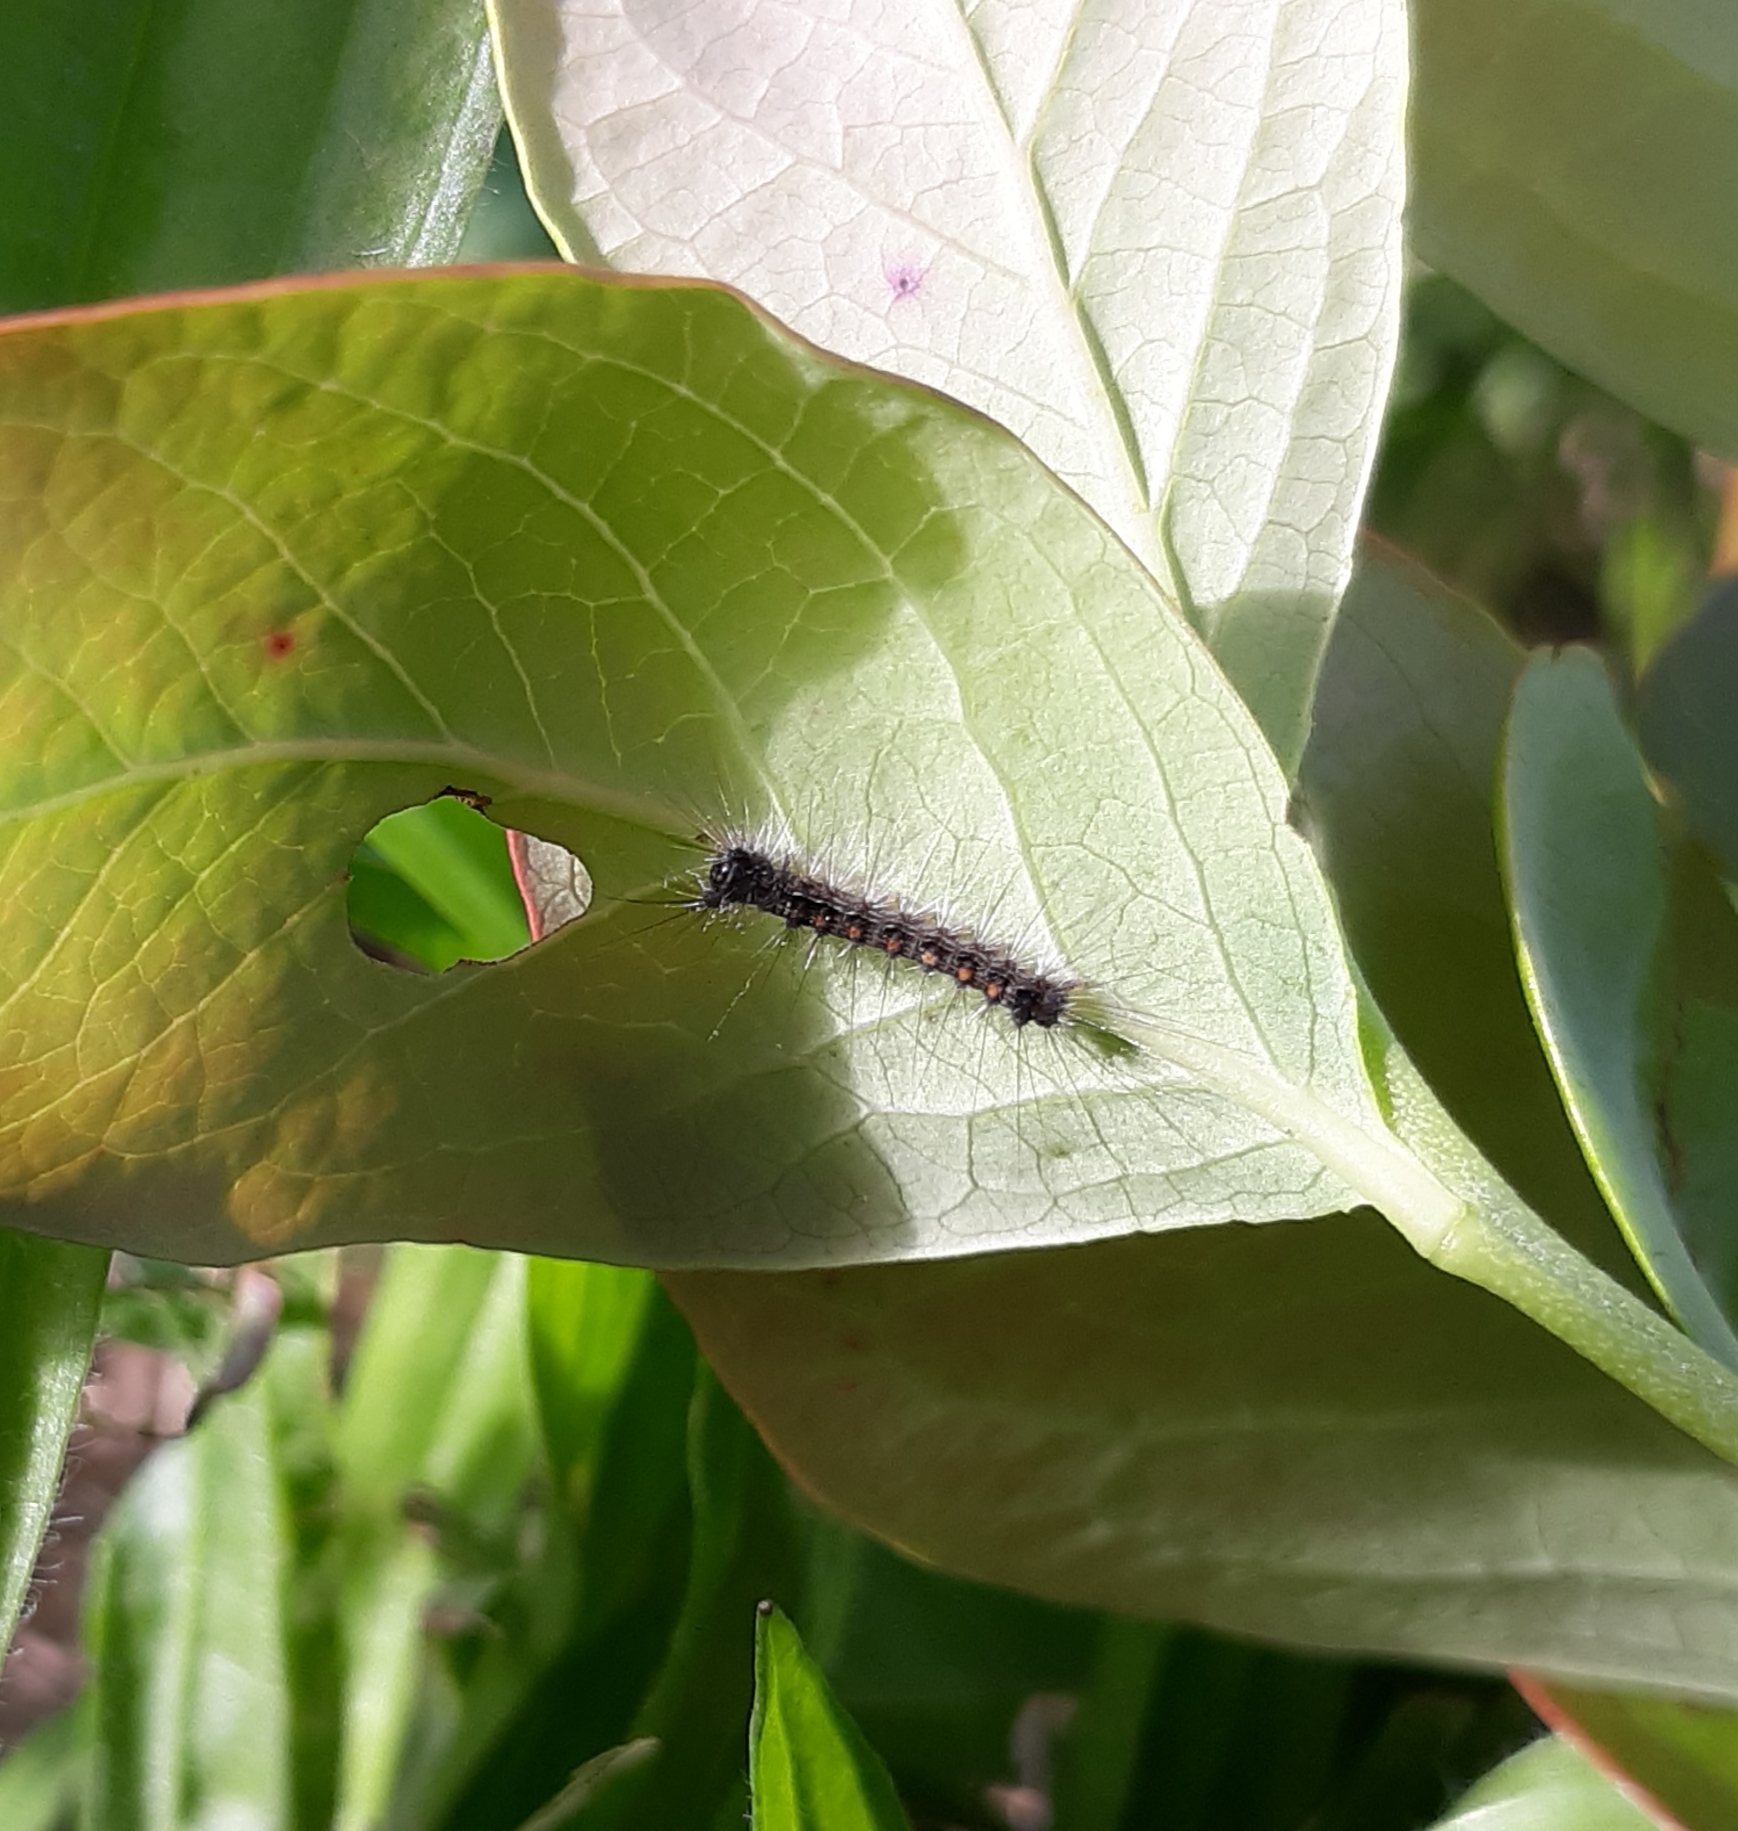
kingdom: Animalia
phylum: Arthropoda
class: Insecta
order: Lepidoptera
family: Erebidae
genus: Lymantria
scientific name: Lymantria dispar
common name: Gypsy moth
